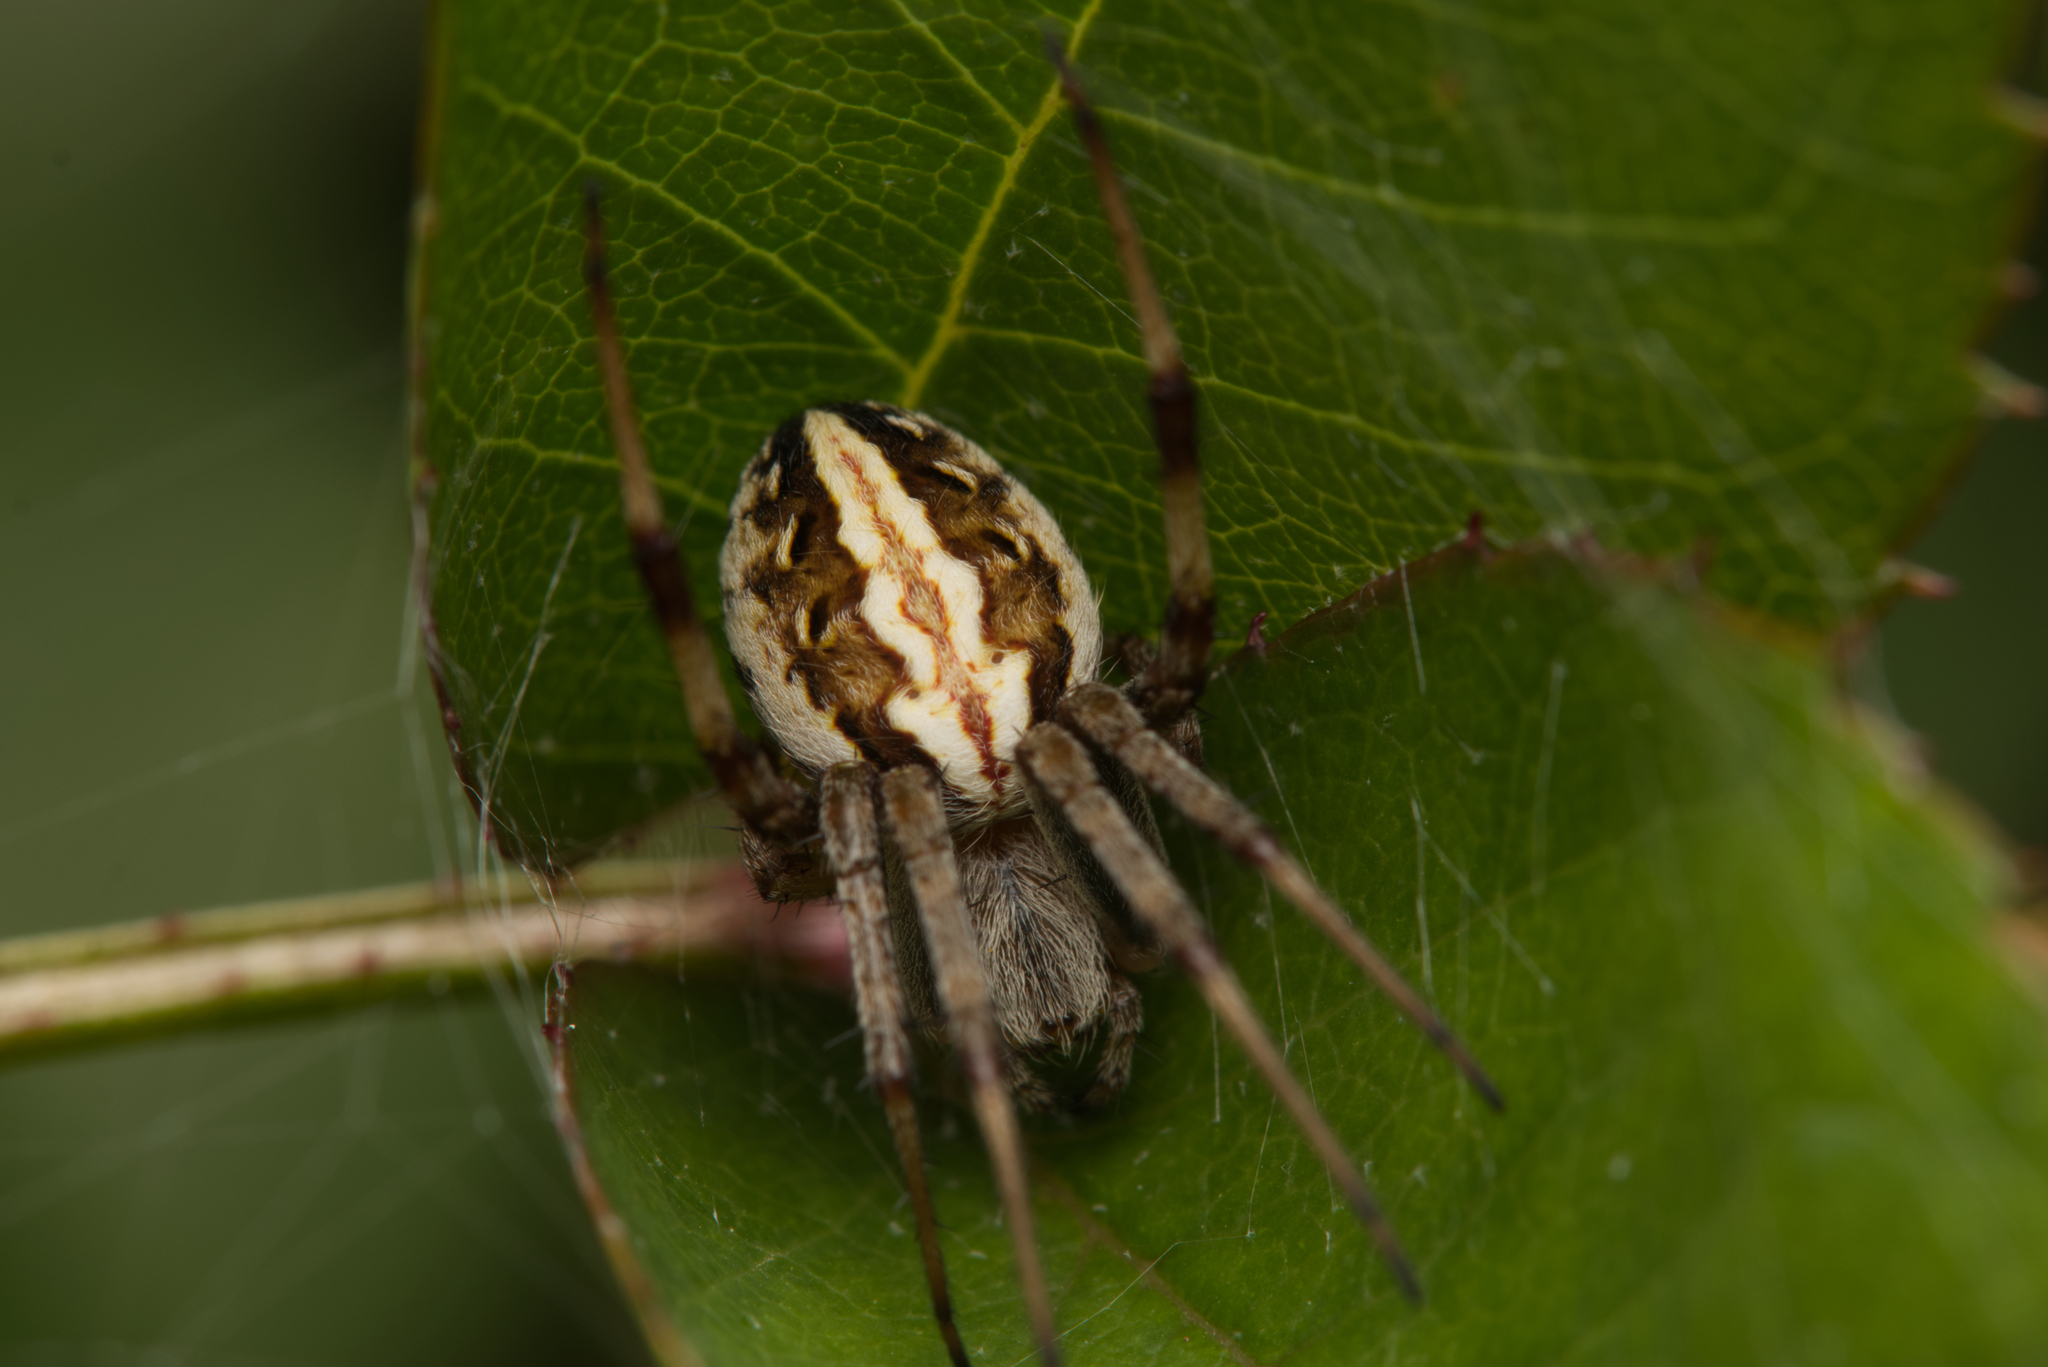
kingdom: Animalia
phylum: Arthropoda
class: Arachnida
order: Araneae
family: Araneidae
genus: Neoscona
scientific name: Neoscona theisi
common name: Spider
